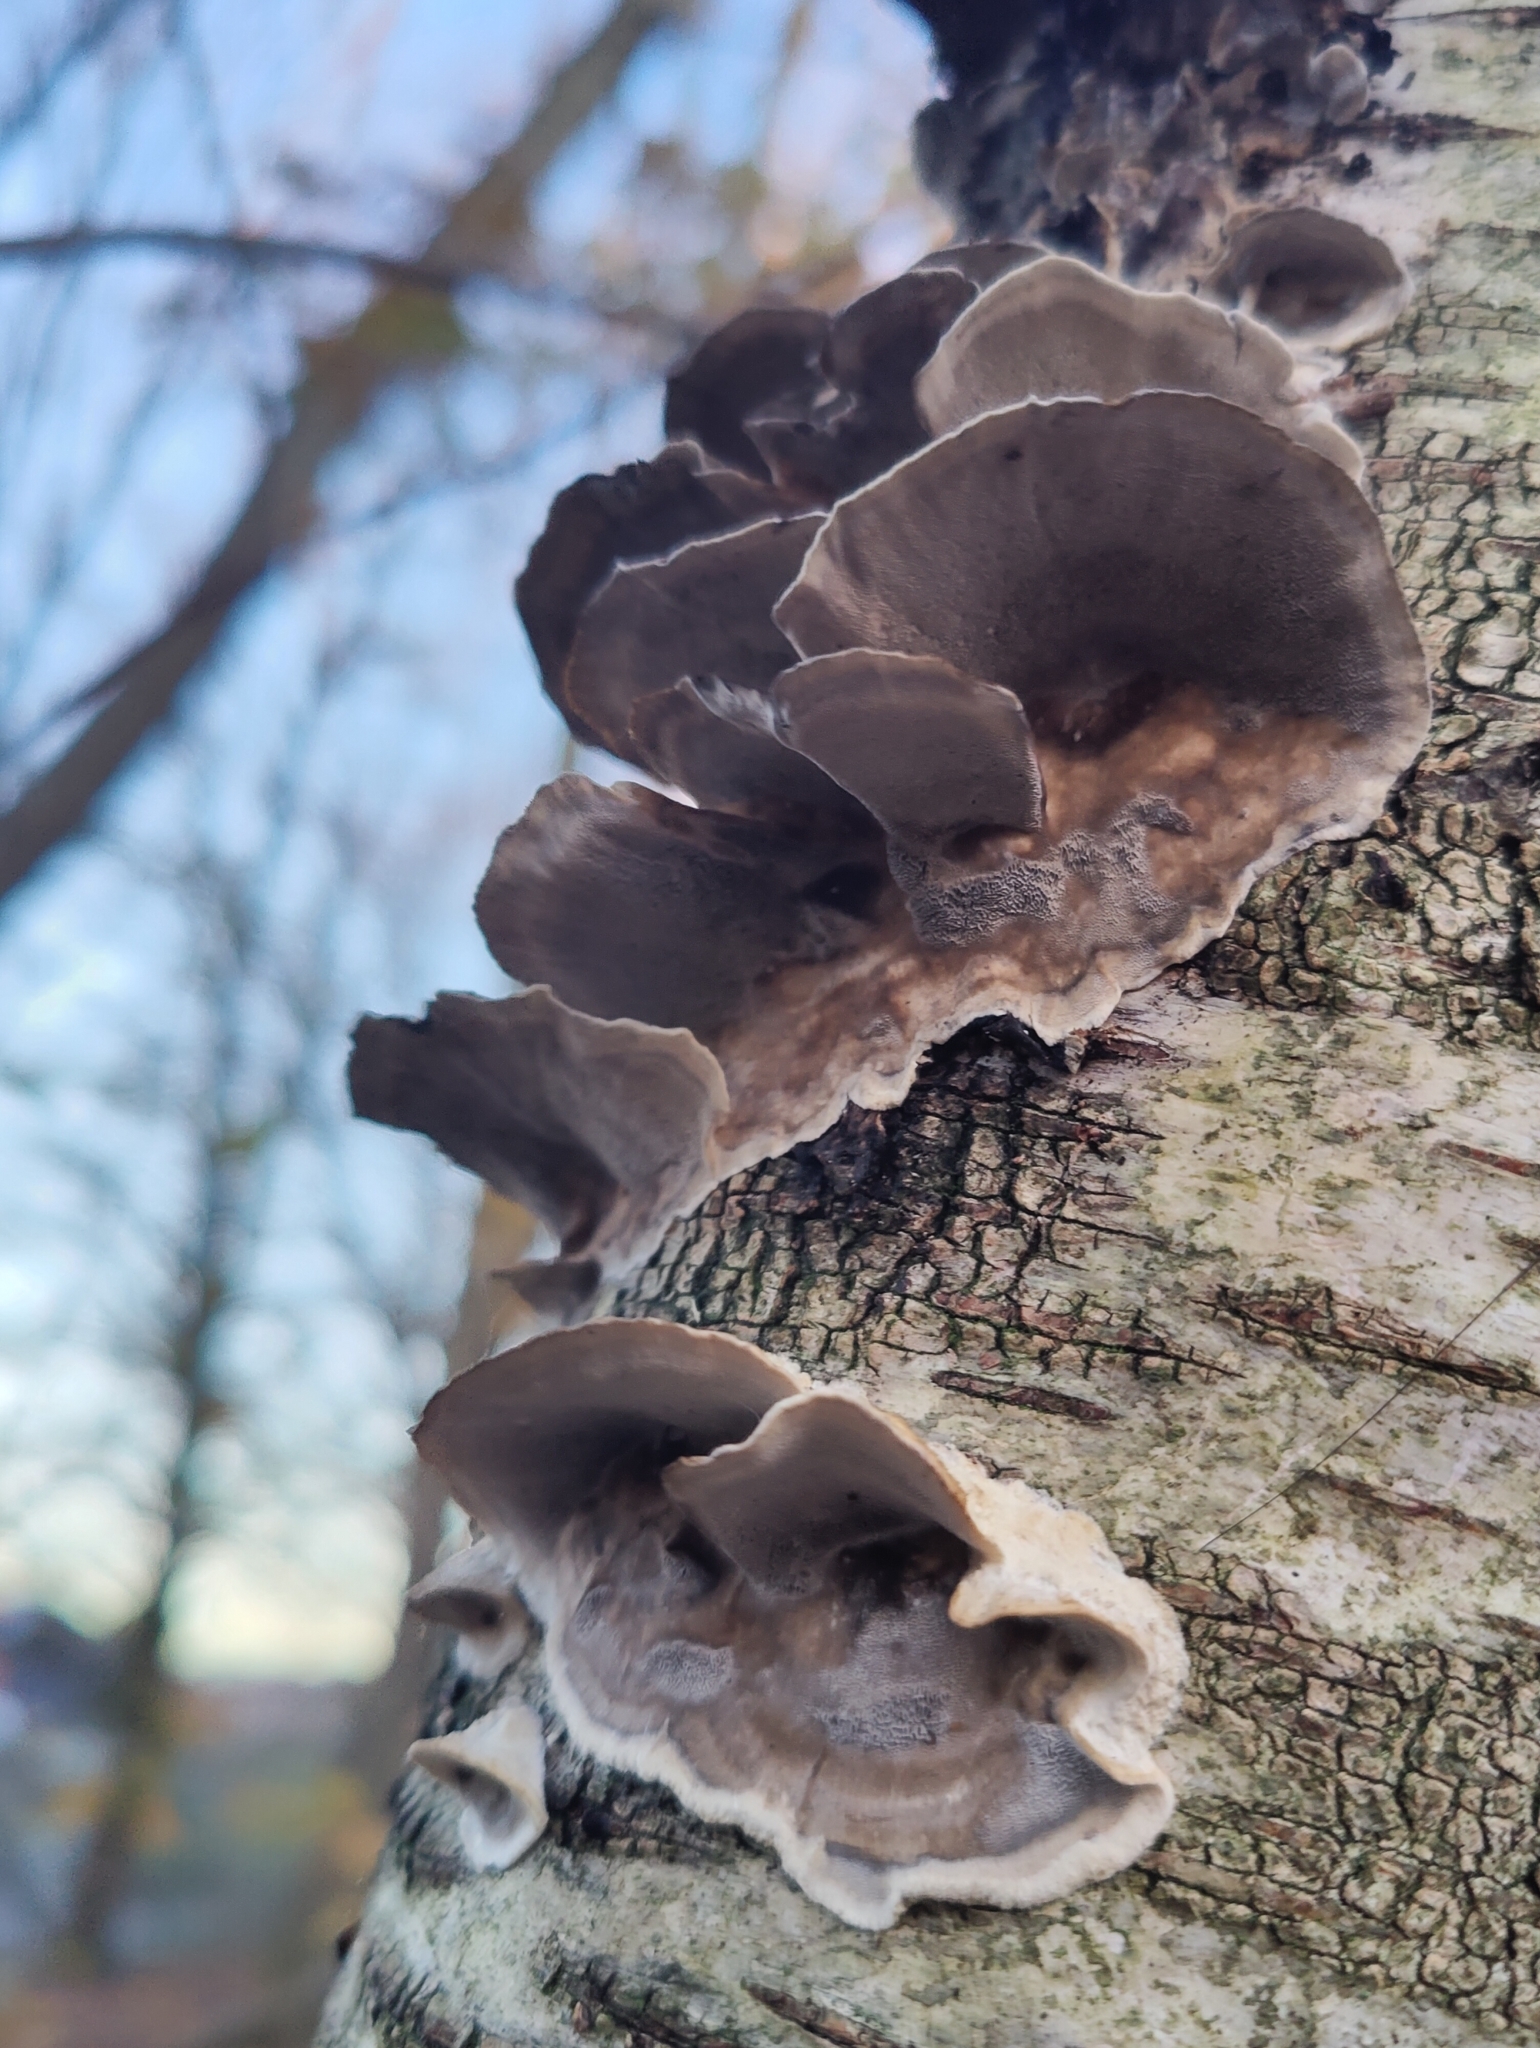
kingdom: Fungi
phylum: Basidiomycota
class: Agaricomycetes
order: Polyporales
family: Phanerochaetaceae
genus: Bjerkandera
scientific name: Bjerkandera adusta
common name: Smoky bracket
